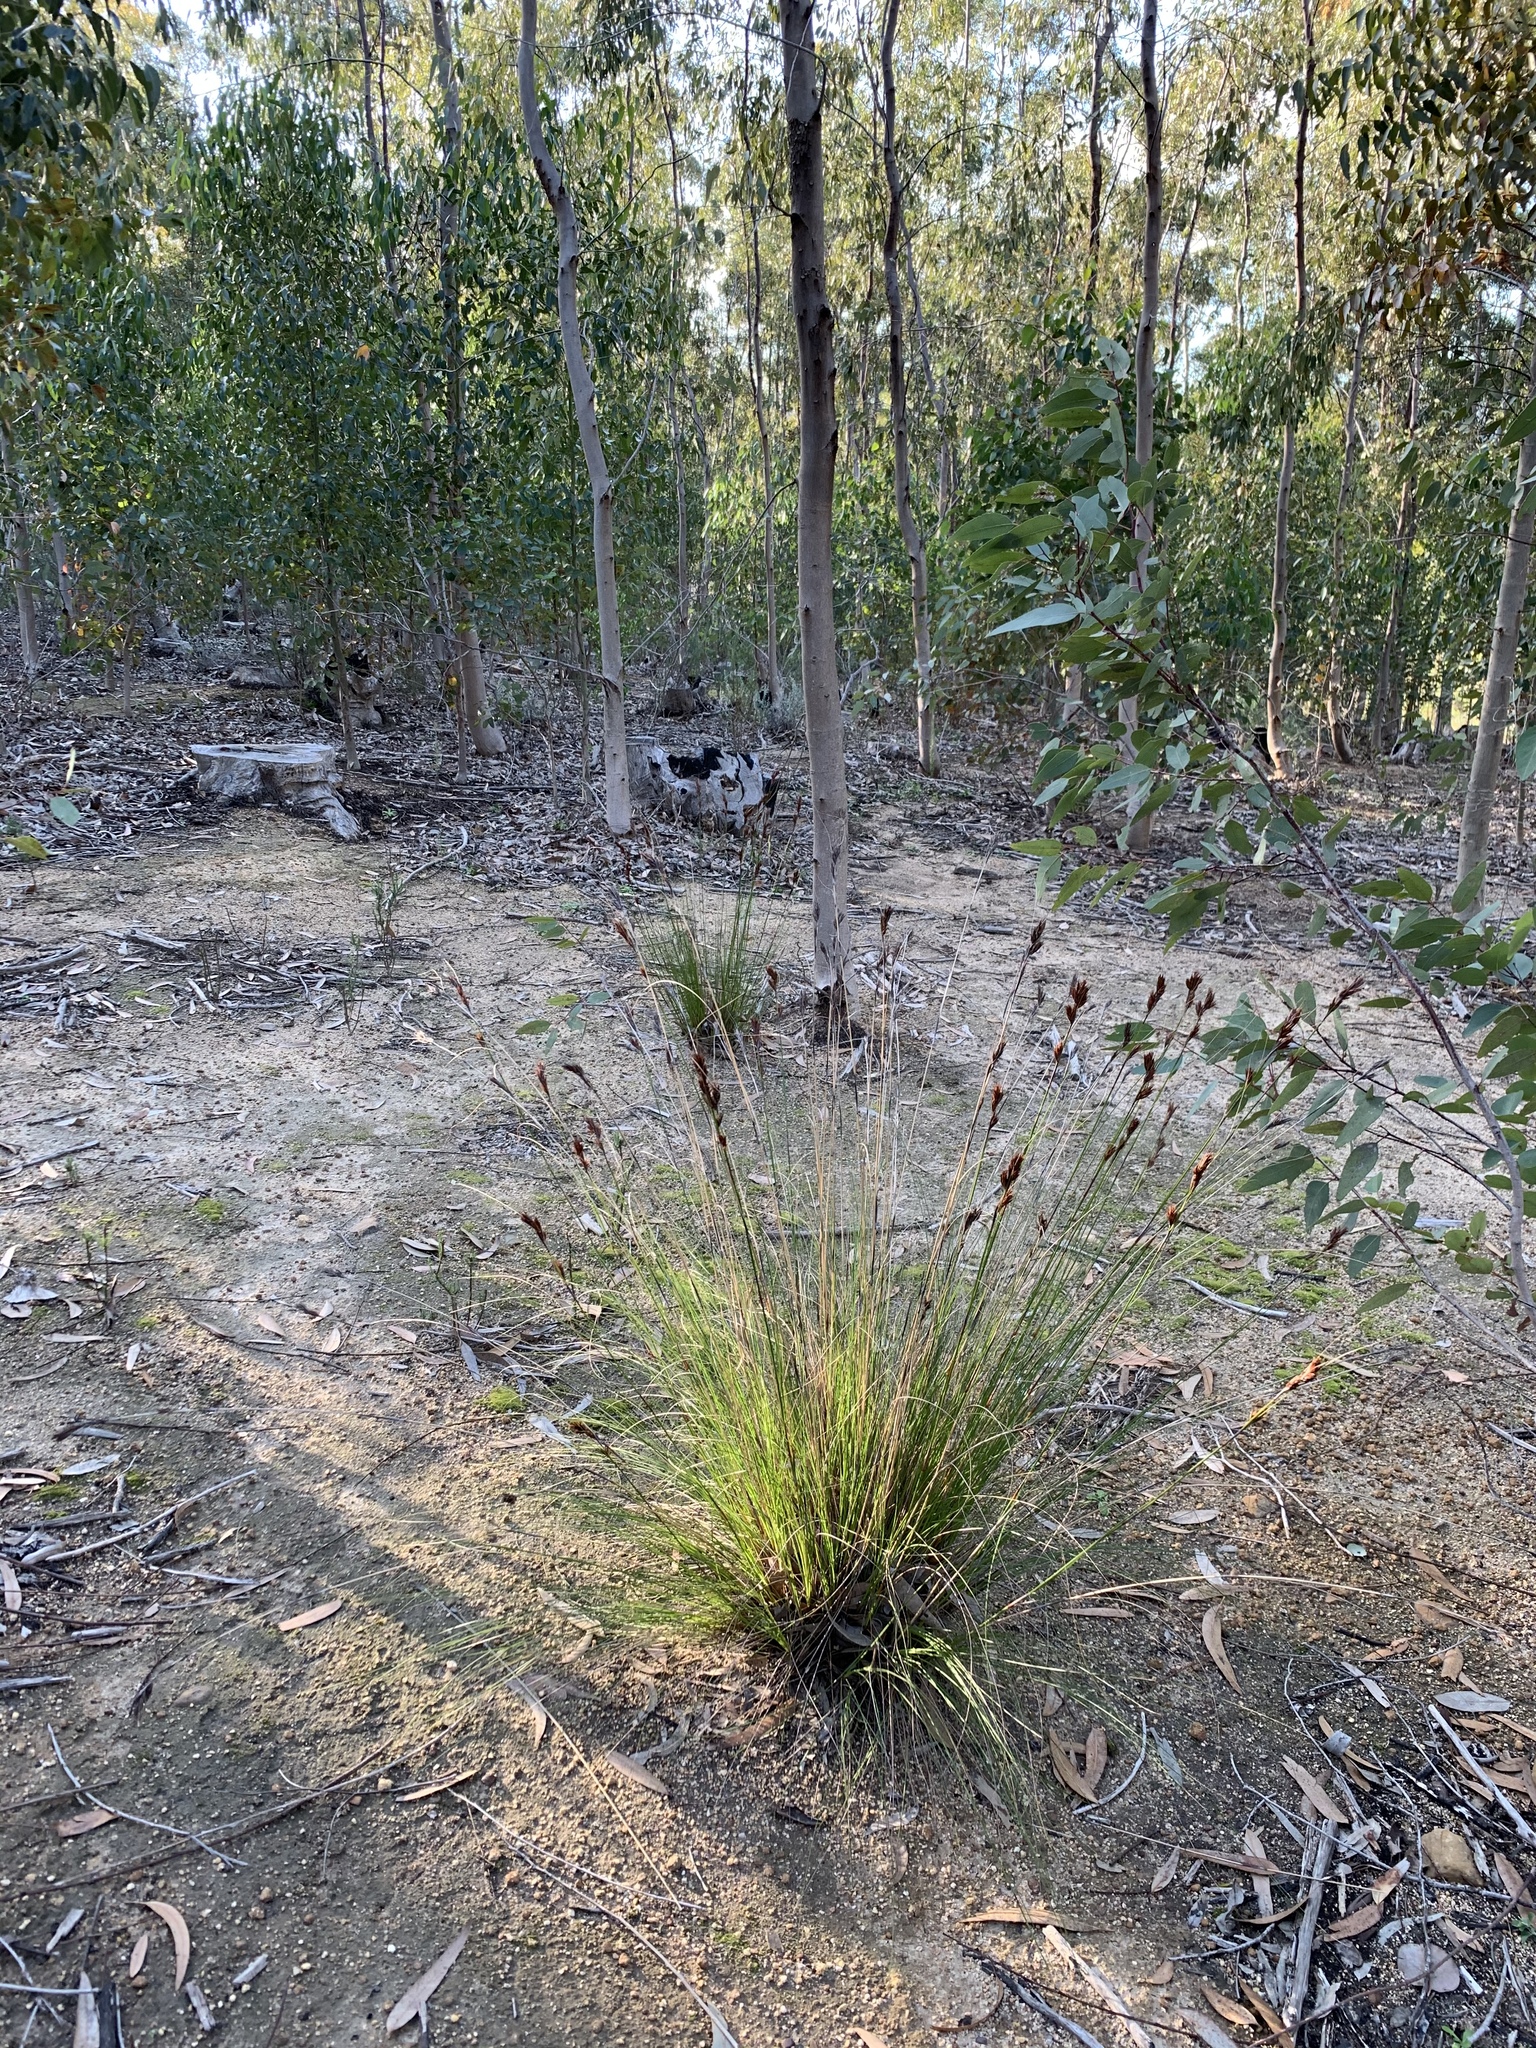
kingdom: Plantae
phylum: Tracheophyta
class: Liliopsida
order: Poales
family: Cyperaceae
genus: Tetraria
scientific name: Tetraria ustulata
